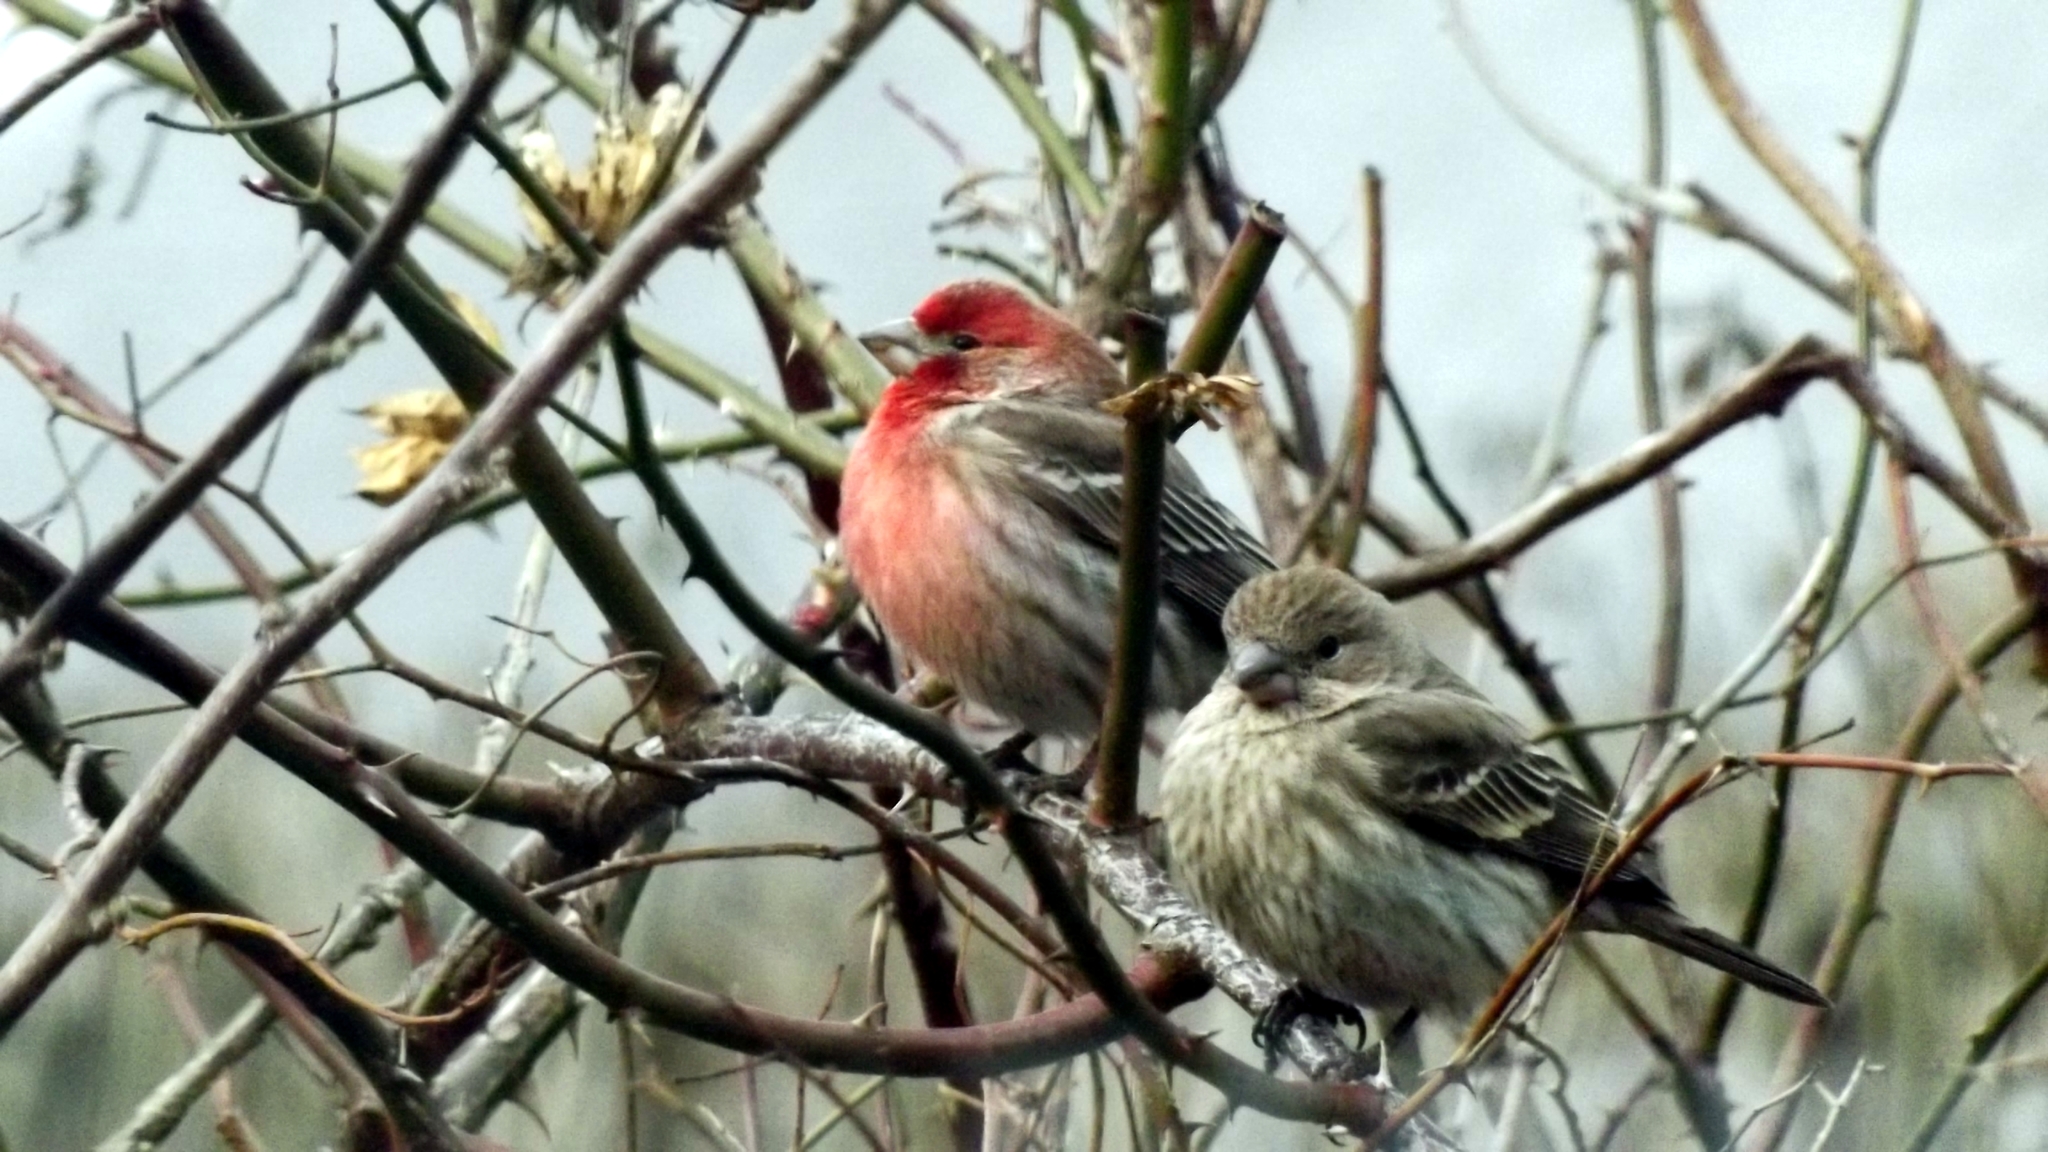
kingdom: Animalia
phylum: Chordata
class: Aves
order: Passeriformes
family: Fringillidae
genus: Haemorhous
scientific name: Haemorhous mexicanus
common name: House finch
